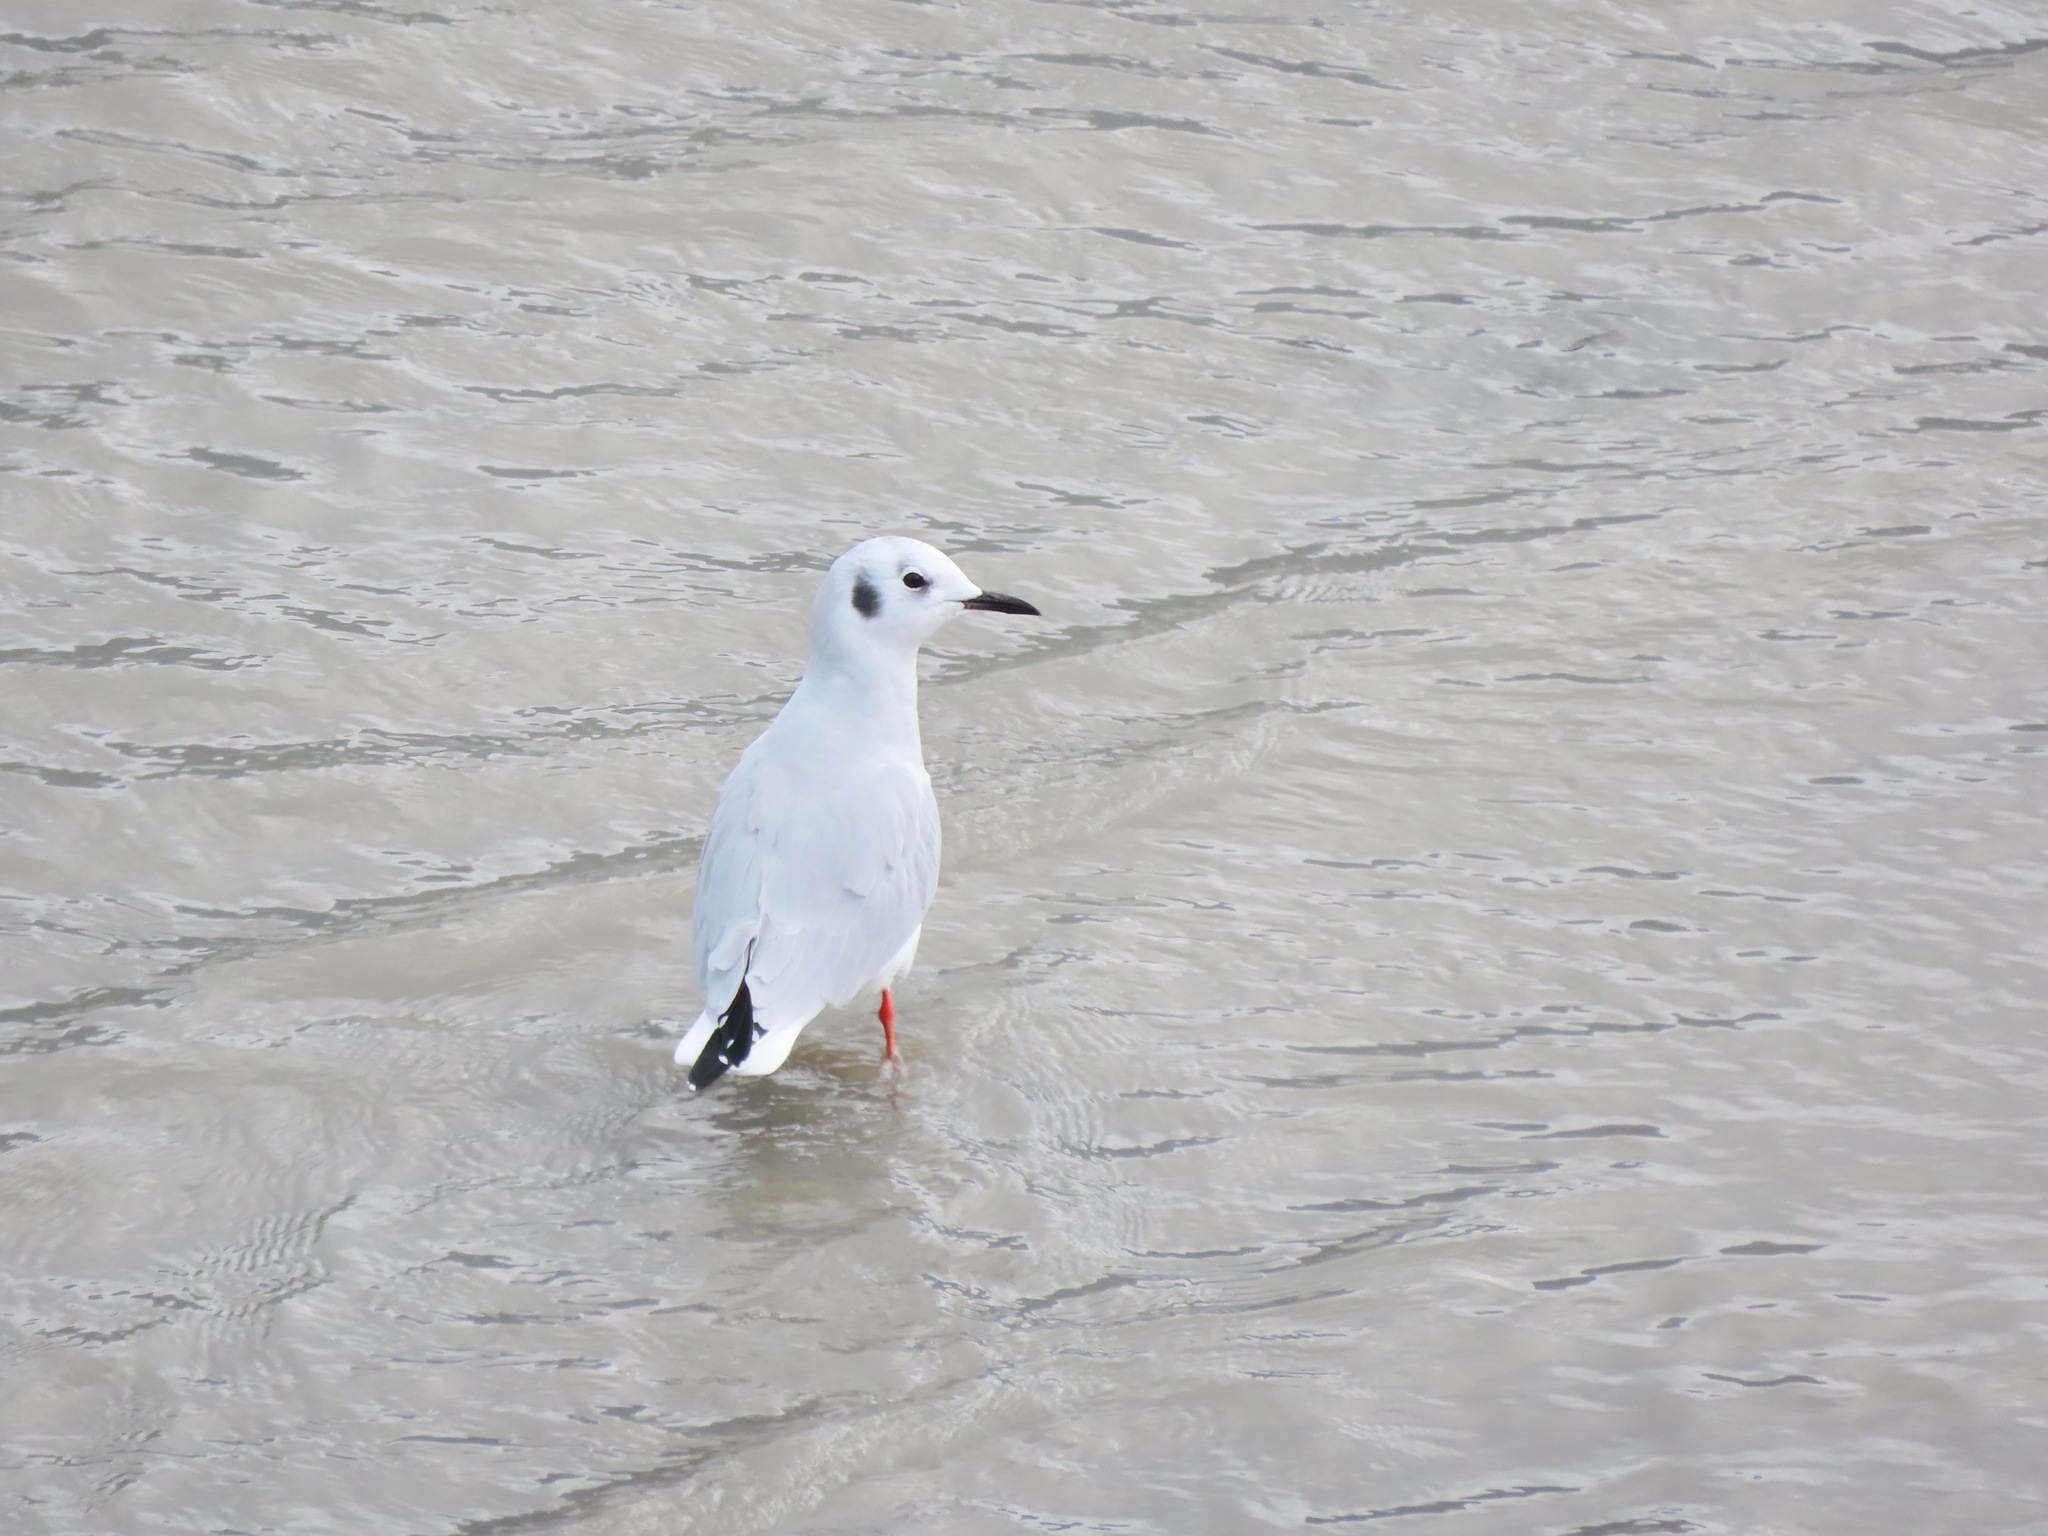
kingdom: Animalia
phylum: Chordata
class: Aves
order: Charadriiformes
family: Laridae
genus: Chroicocephalus
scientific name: Chroicocephalus philadelphia
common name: Bonaparte's gull
